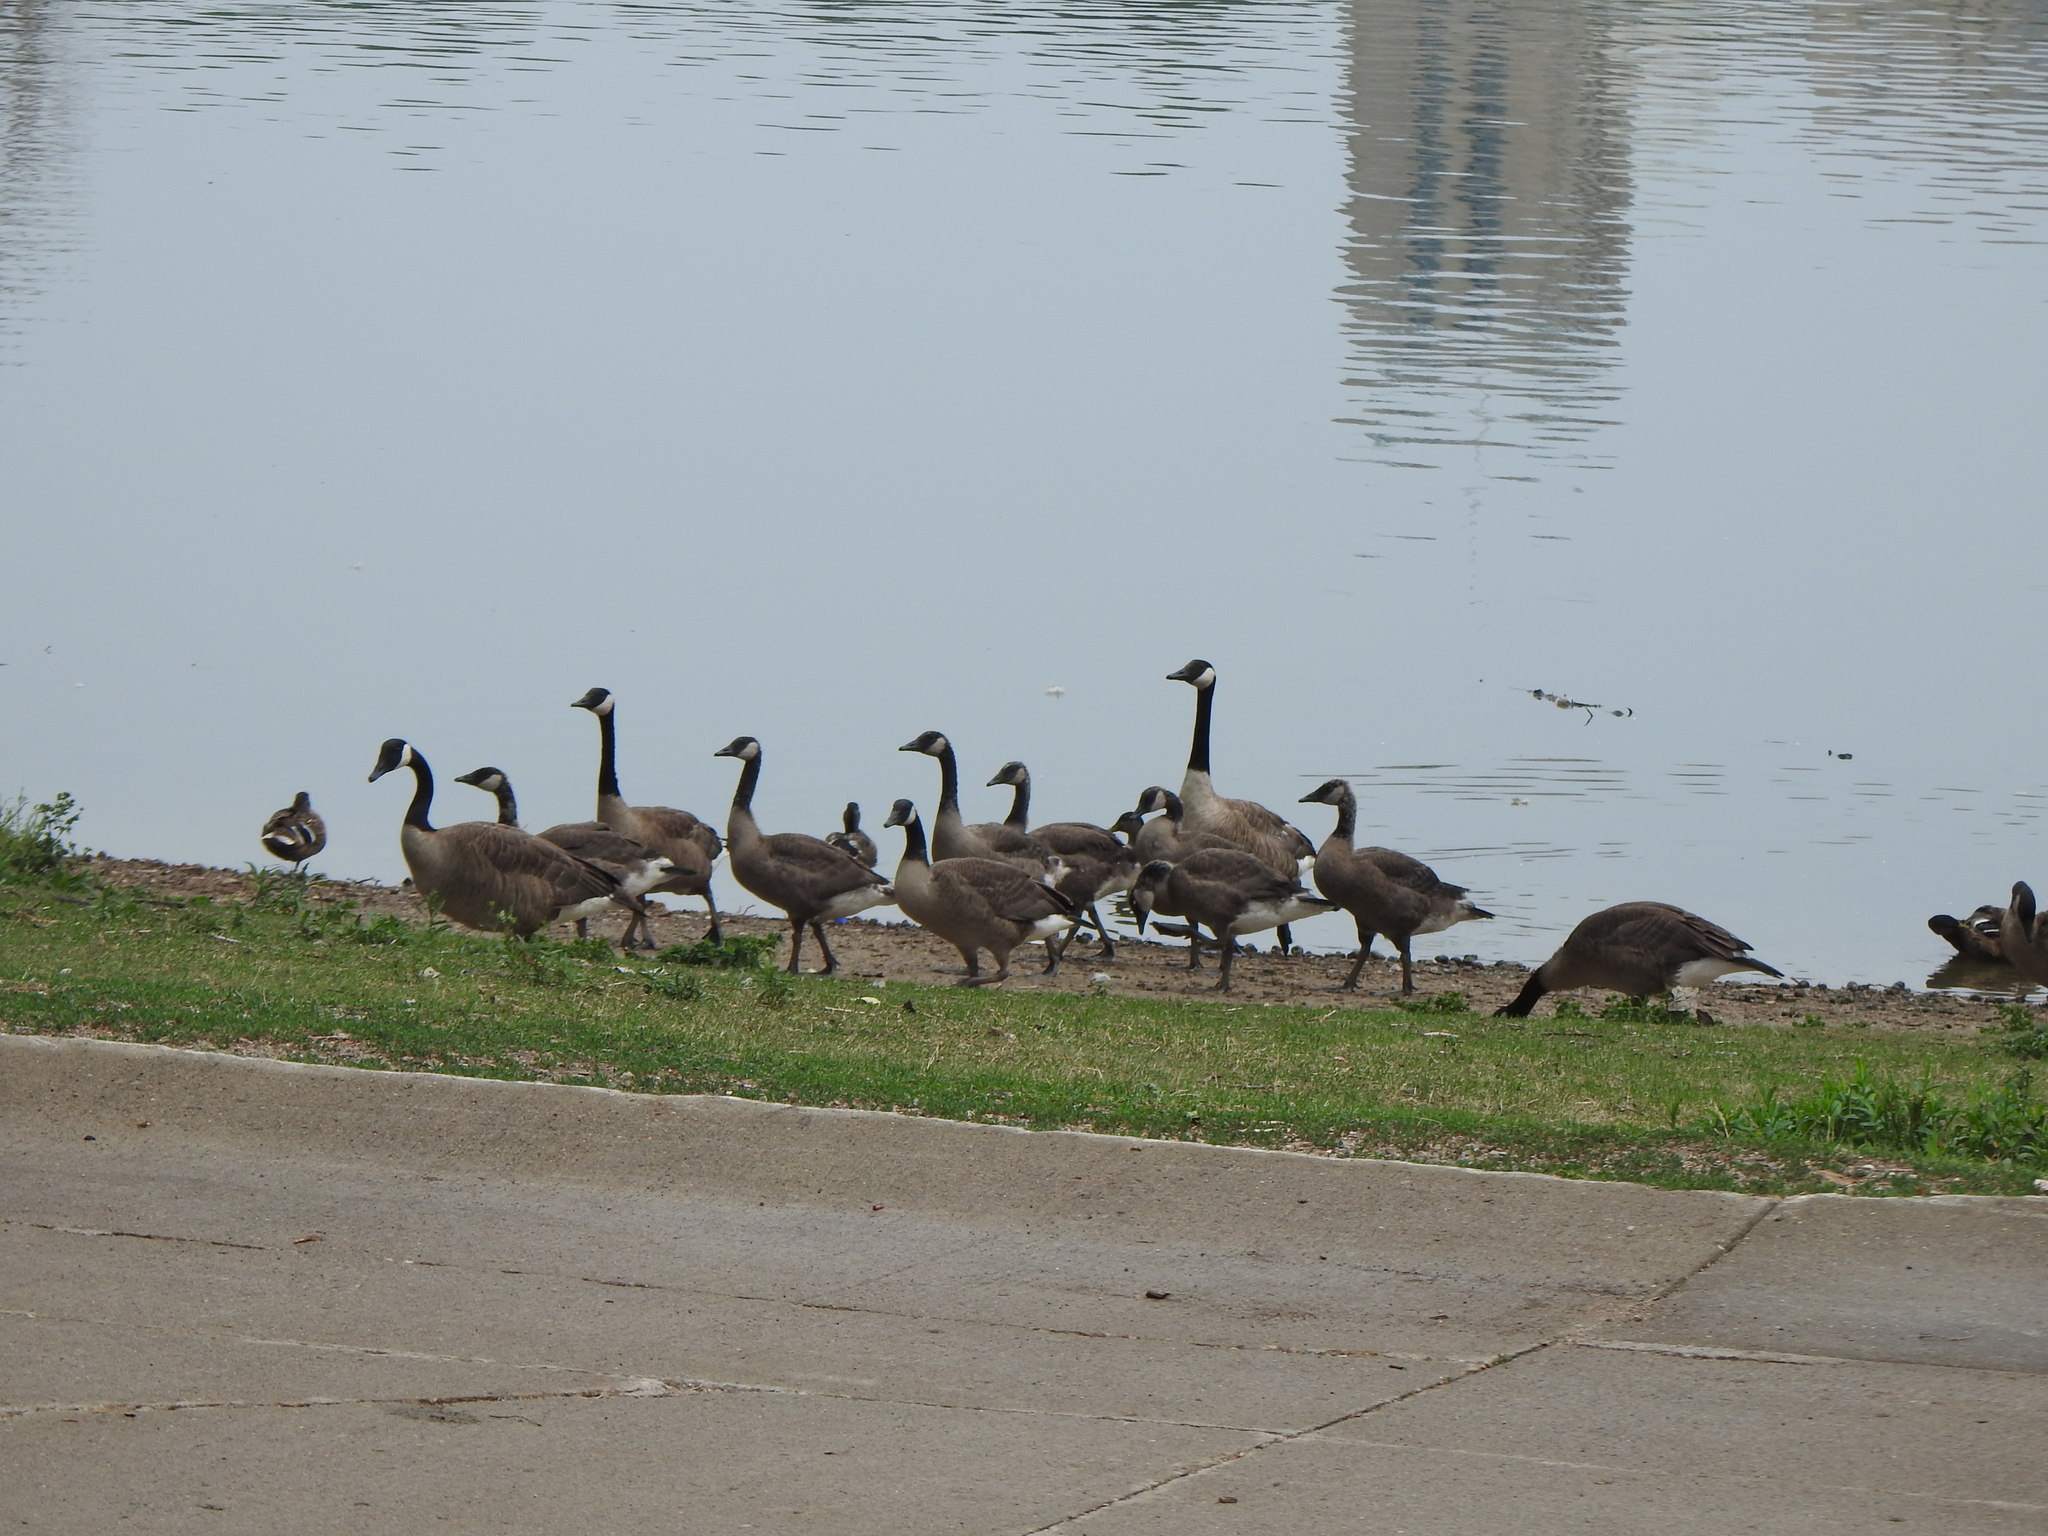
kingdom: Animalia
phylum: Chordata
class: Aves
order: Anseriformes
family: Anatidae
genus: Branta
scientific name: Branta canadensis
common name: Canada goose
